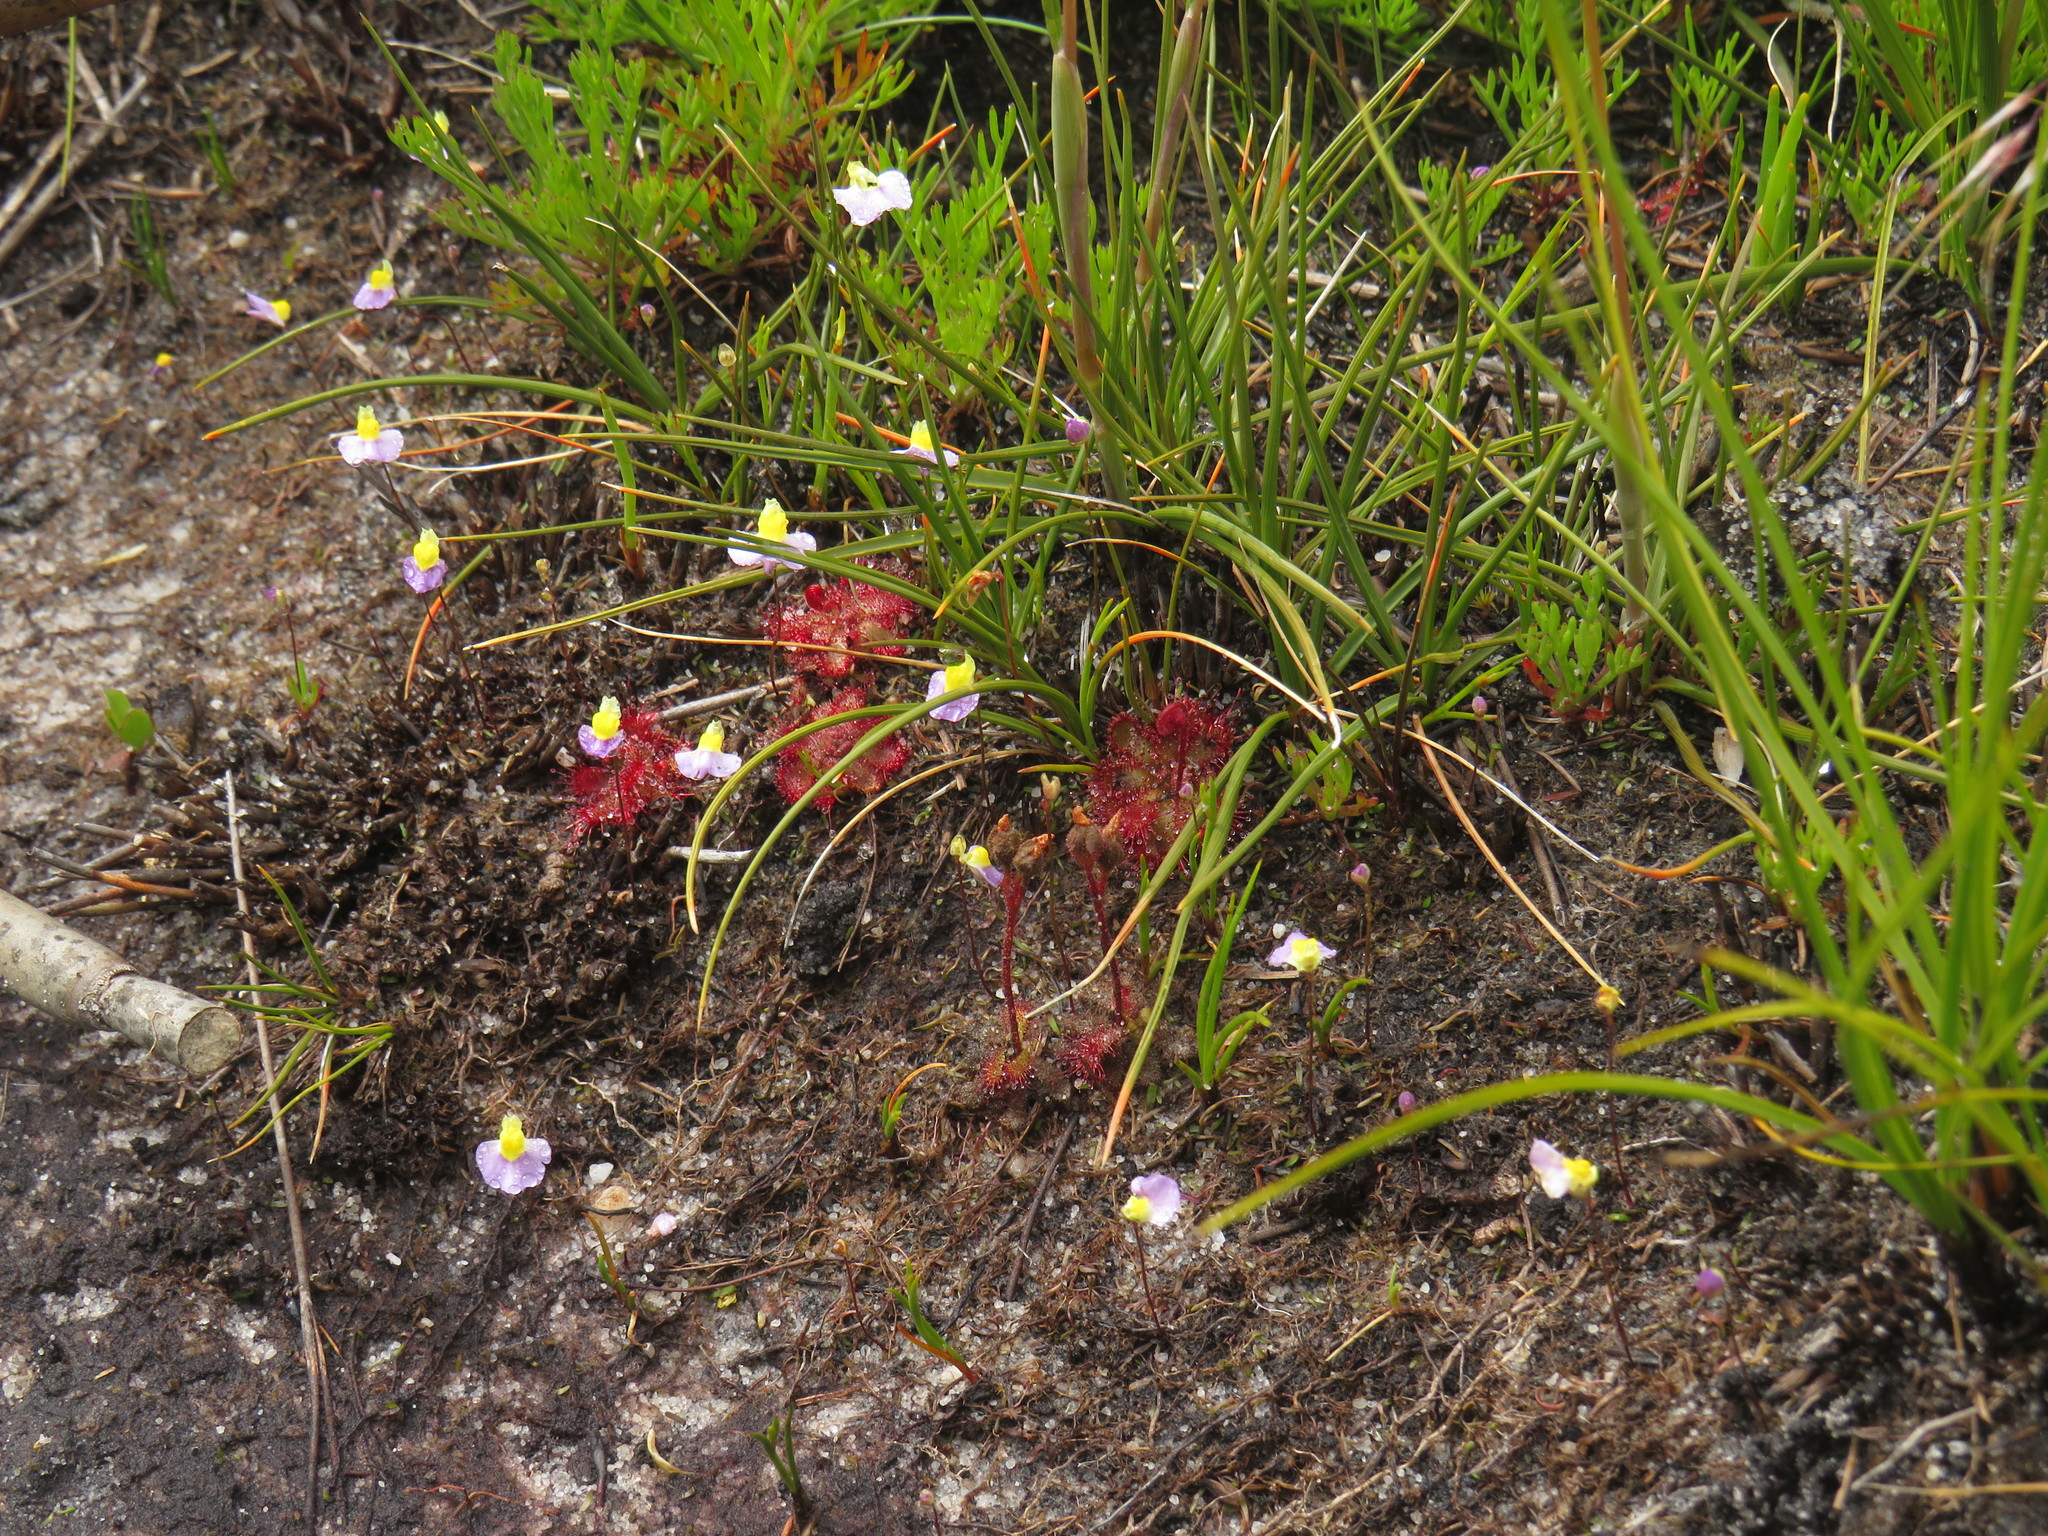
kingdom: Plantae
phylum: Tracheophyta
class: Magnoliopsida
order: Lamiales
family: Lentibulariaceae
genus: Utricularia
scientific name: Utricularia bisquamata
